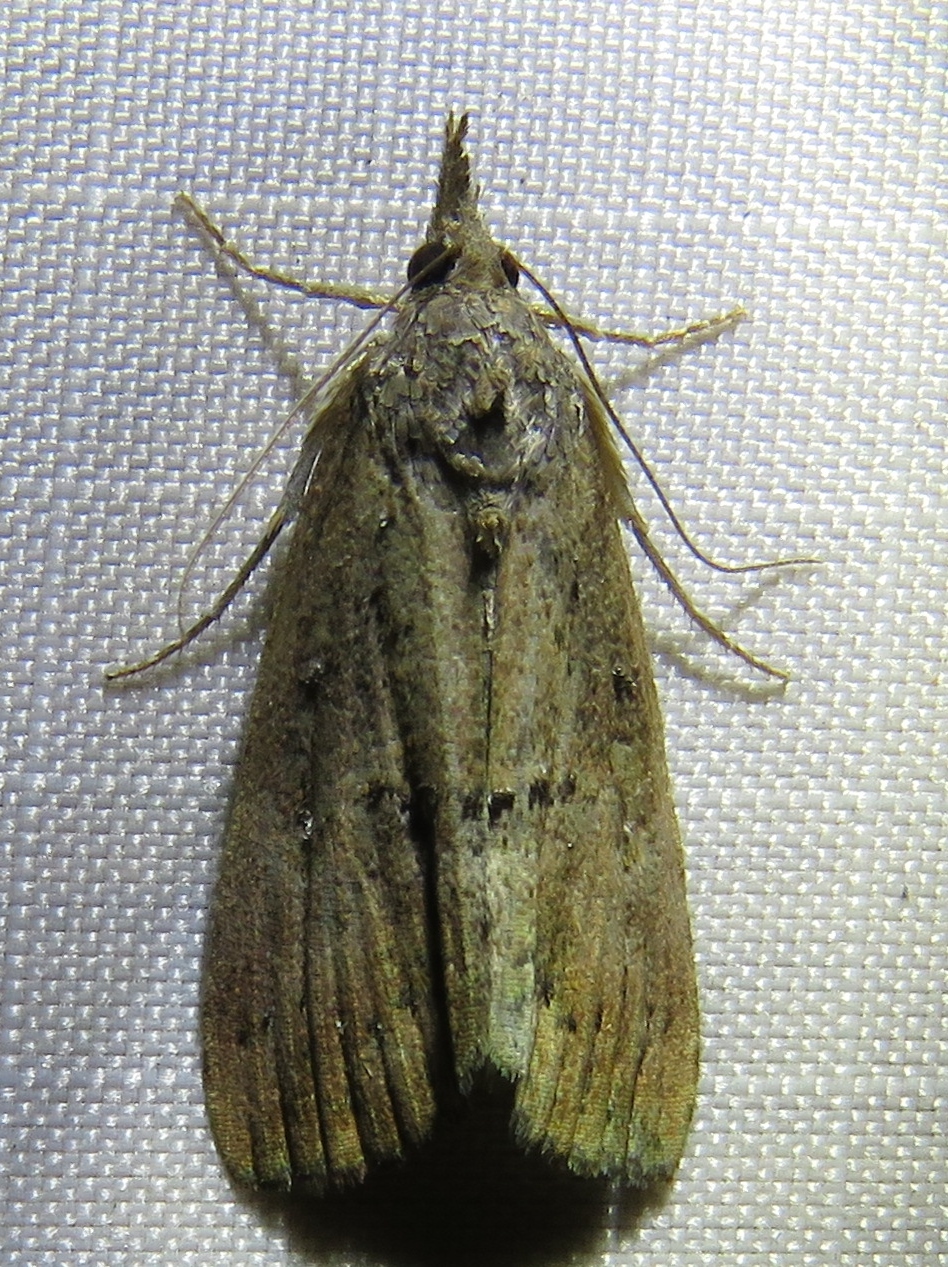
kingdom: Animalia
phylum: Arthropoda
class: Insecta
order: Lepidoptera
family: Erebidae
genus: Hypena
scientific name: Hypena scabra
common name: Green cloverworm
